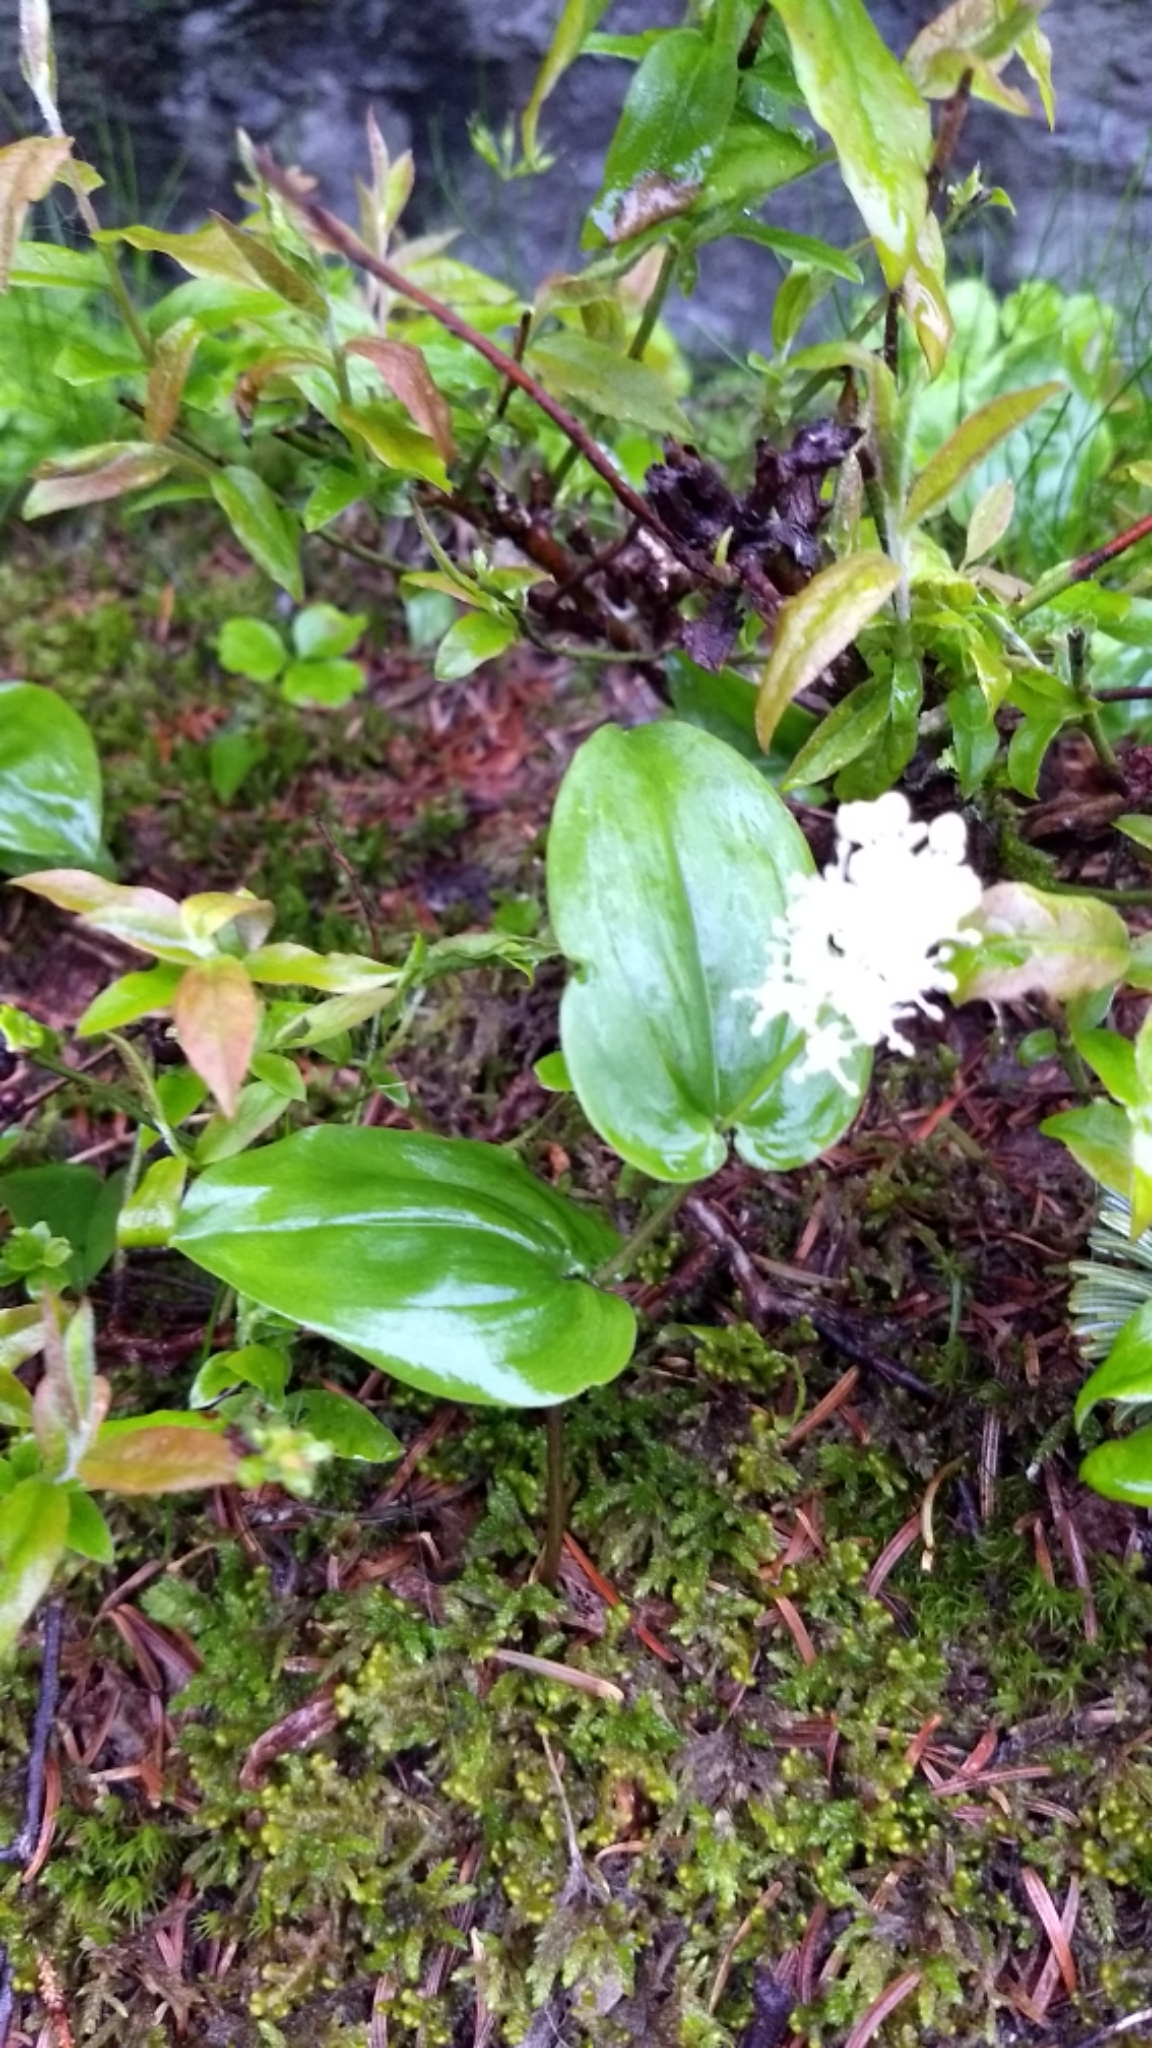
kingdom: Plantae
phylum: Tracheophyta
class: Liliopsida
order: Asparagales
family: Asparagaceae
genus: Maianthemum
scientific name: Maianthemum canadense
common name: False lily-of-the-valley
